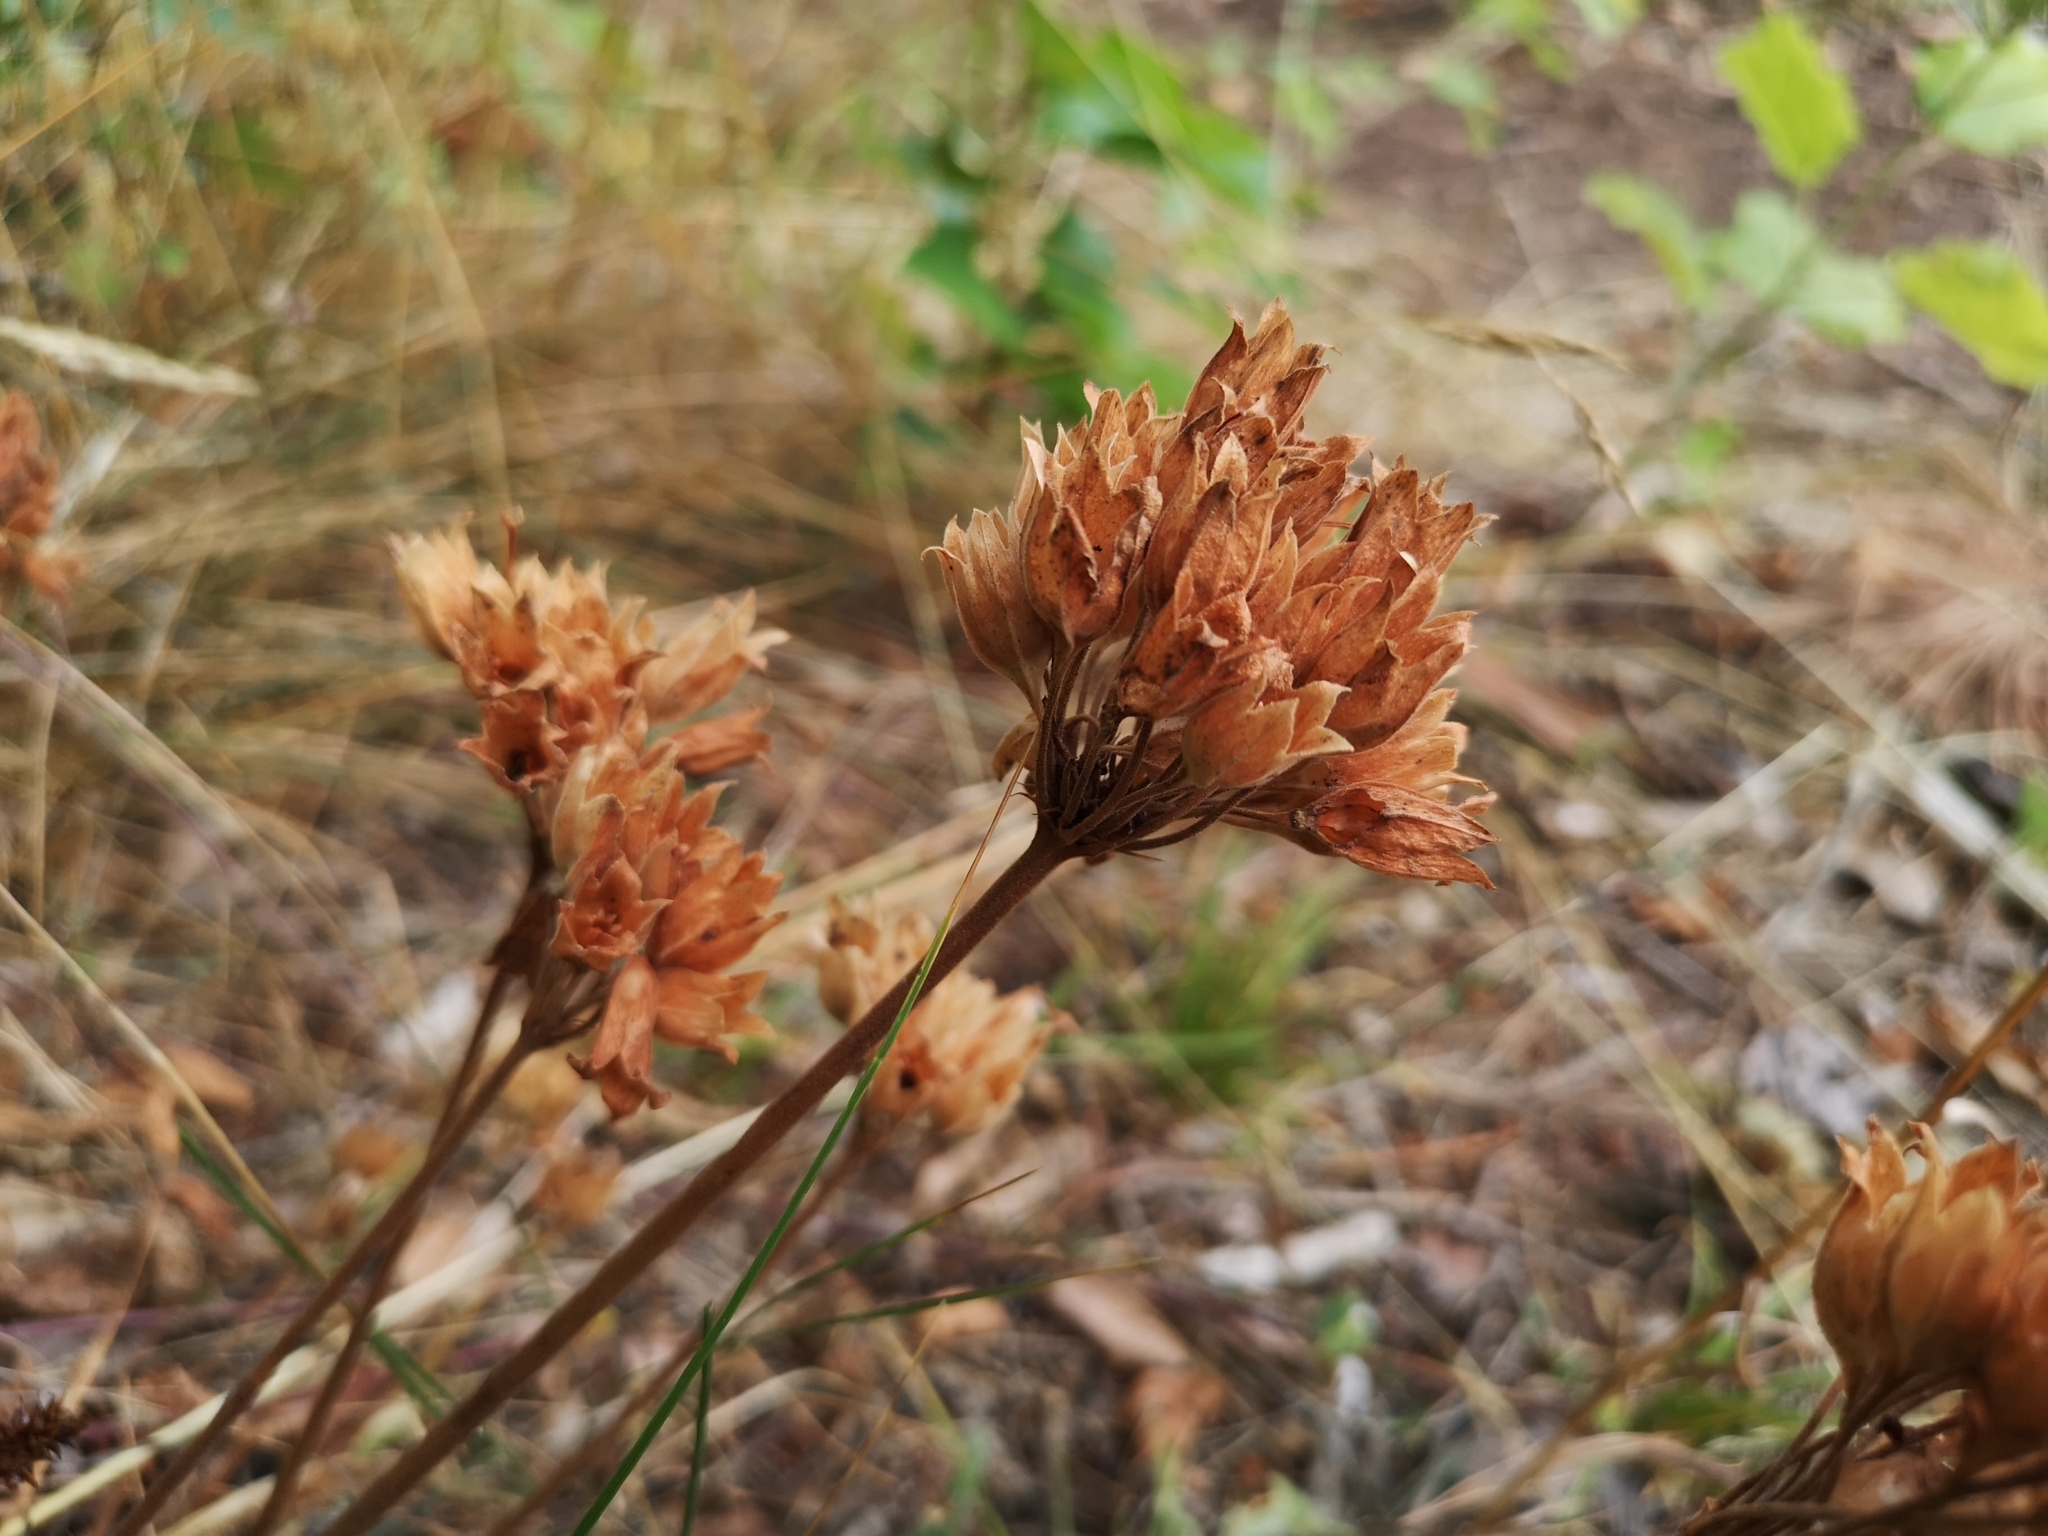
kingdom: Plantae
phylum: Tracheophyta
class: Magnoliopsida
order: Ericales
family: Primulaceae
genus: Primula
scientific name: Primula veris
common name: Cowslip
